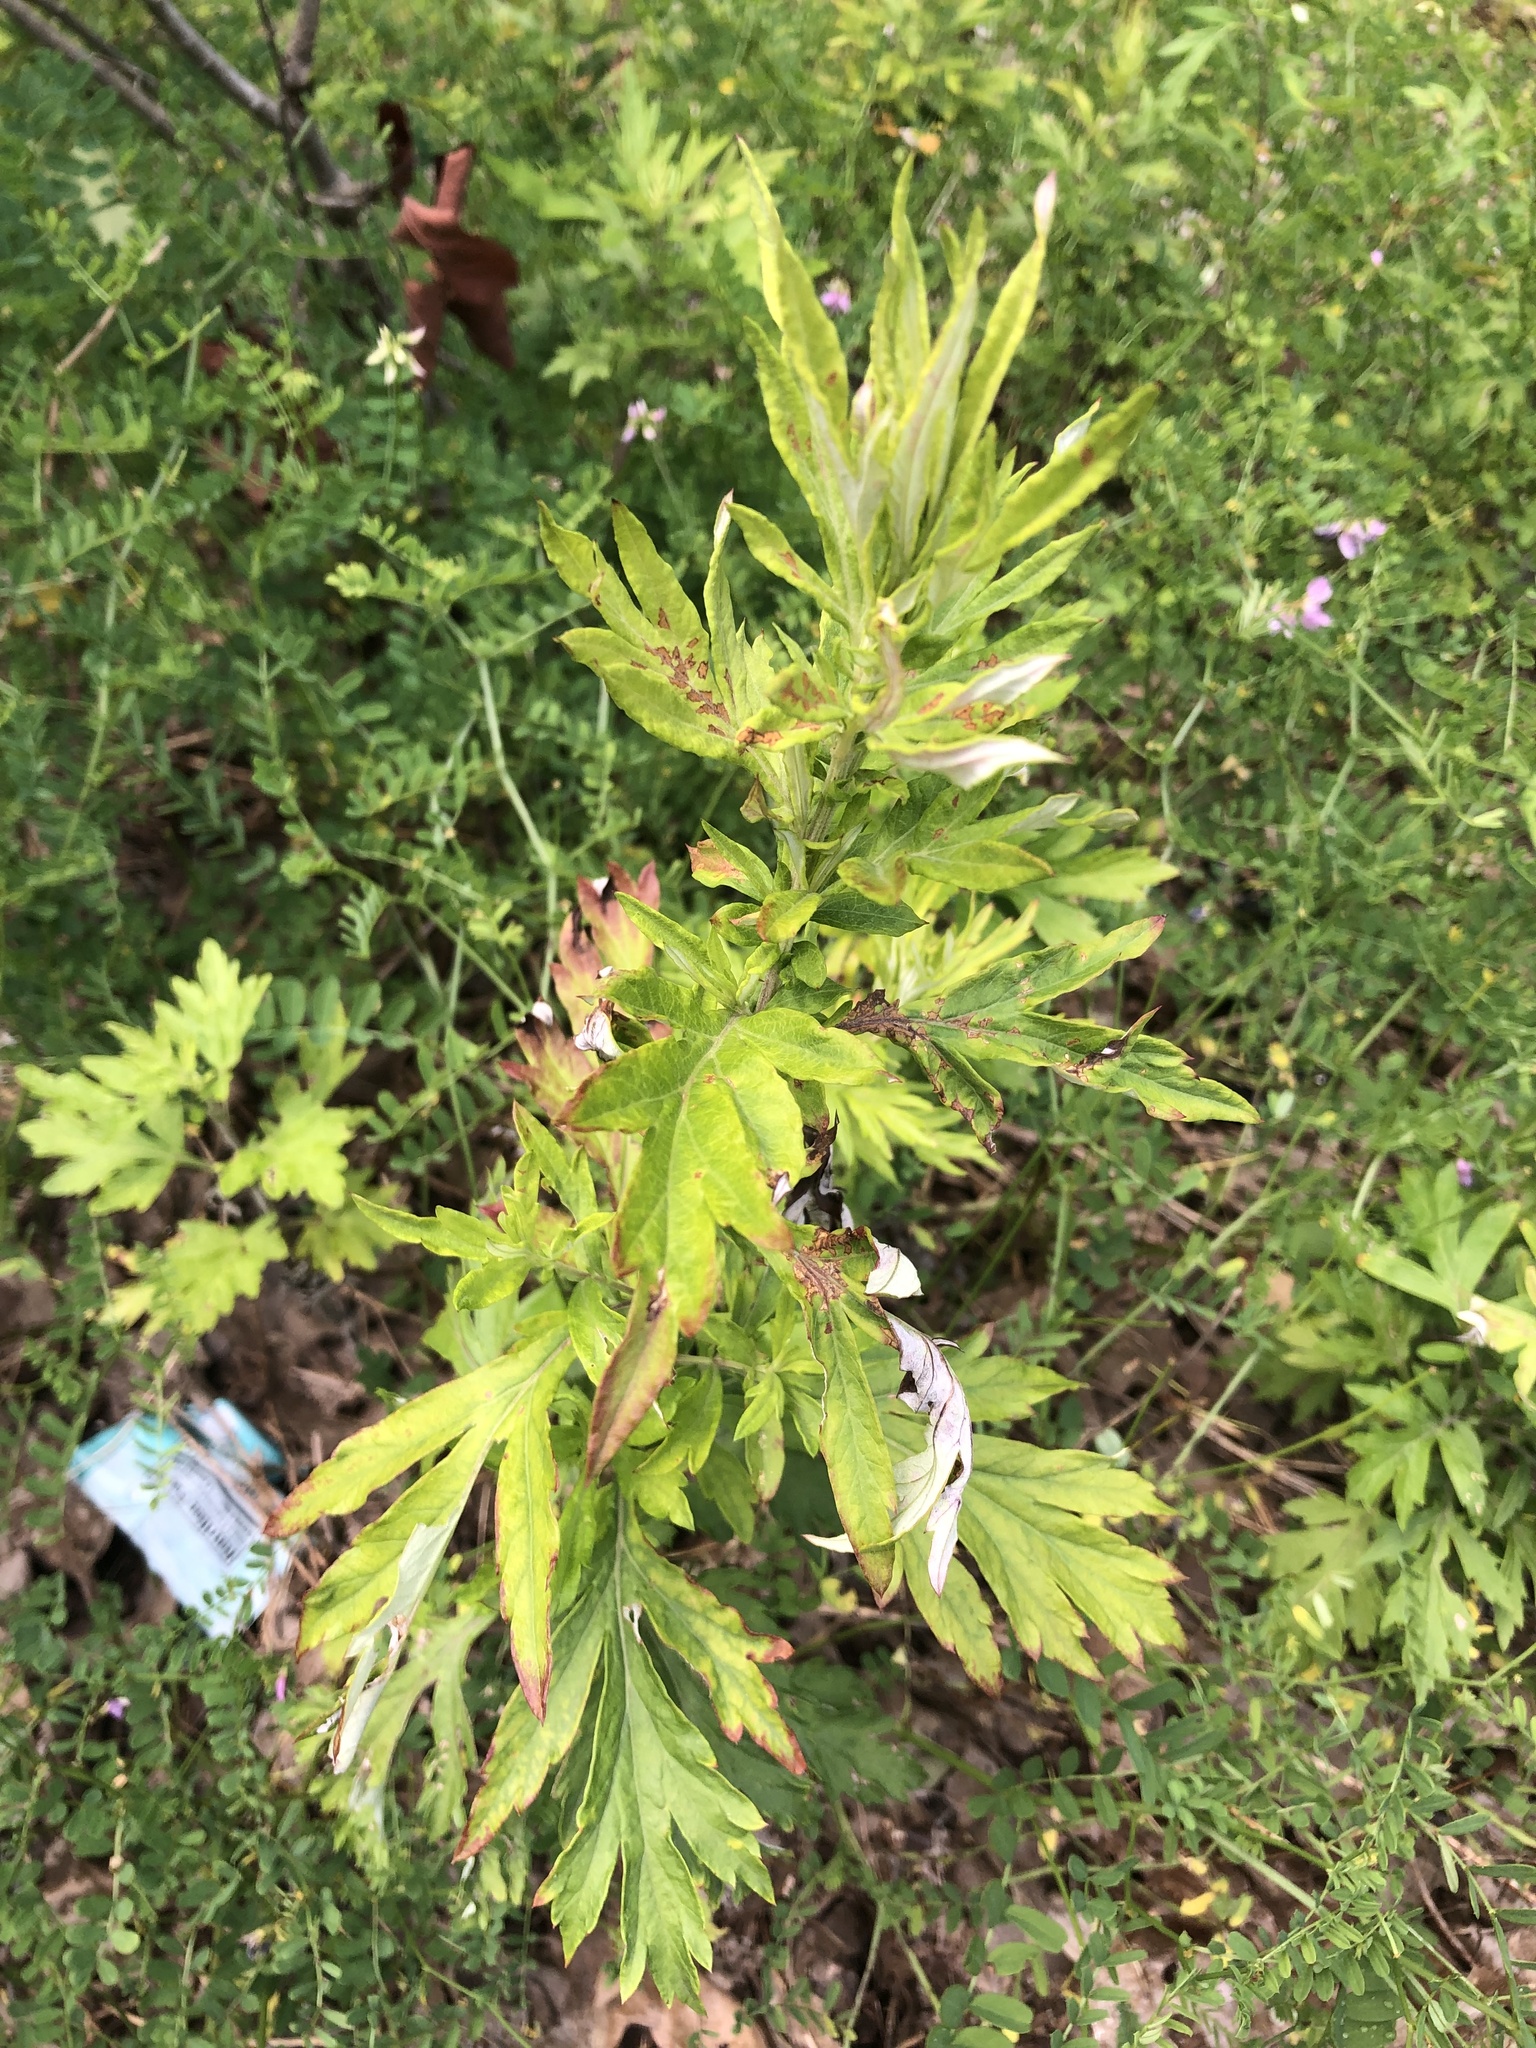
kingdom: Plantae
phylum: Tracheophyta
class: Magnoliopsida
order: Asterales
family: Asteraceae
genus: Artemisia
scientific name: Artemisia vulgaris
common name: Mugwort
